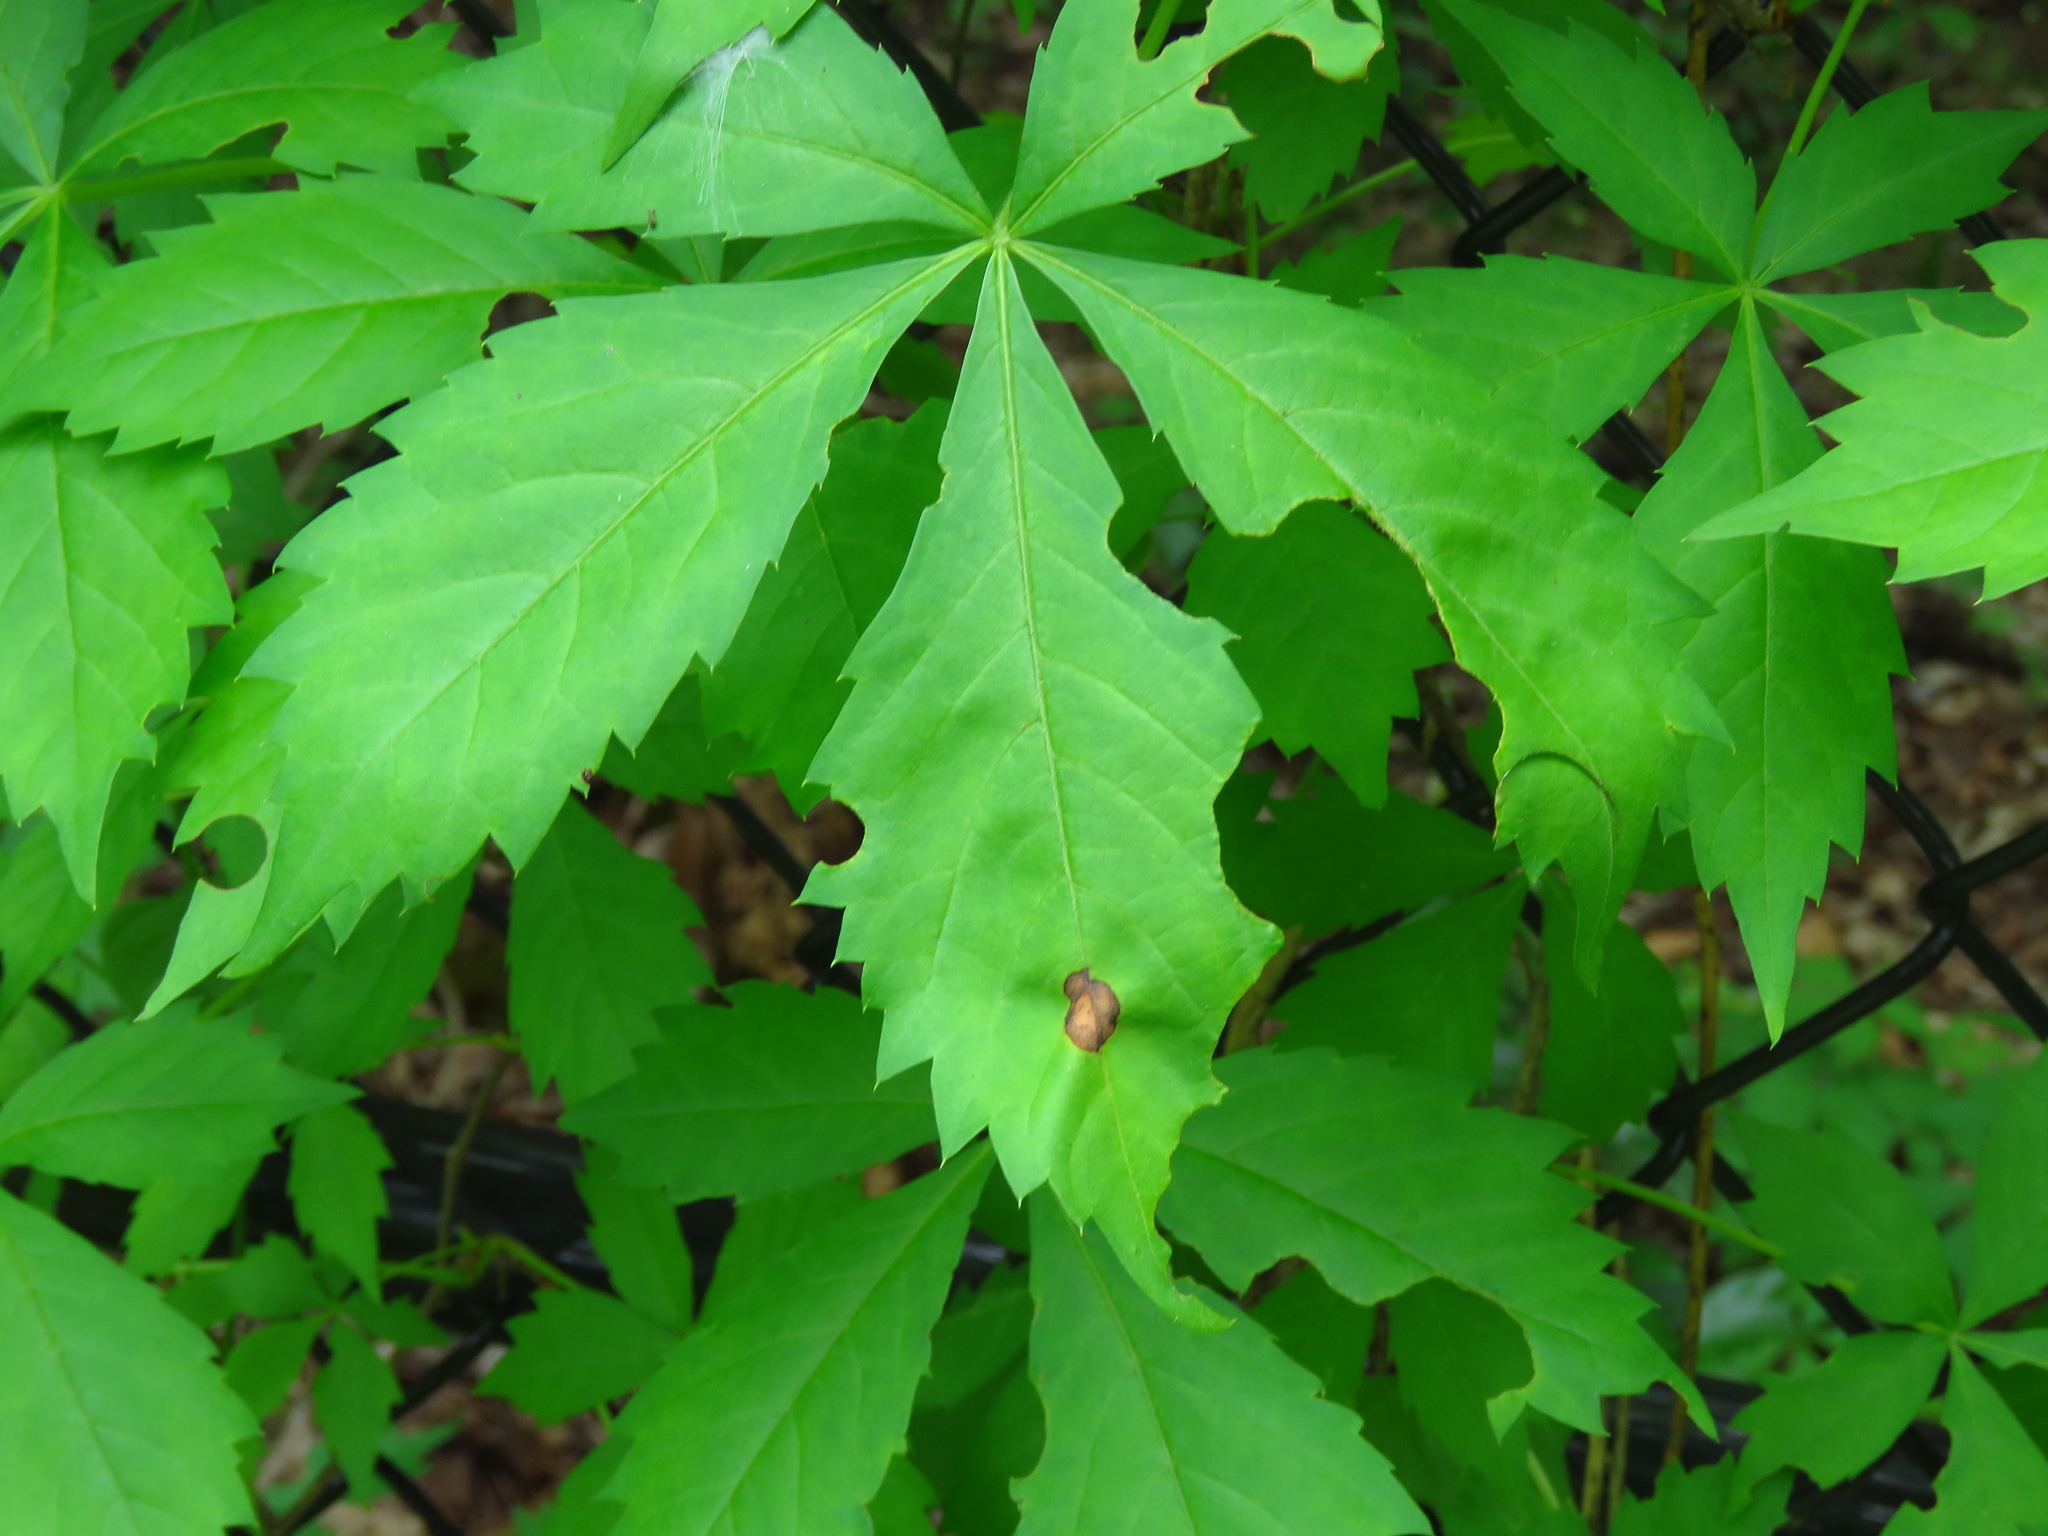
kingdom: Plantae
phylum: Tracheophyta
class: Magnoliopsida
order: Vitales
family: Vitaceae
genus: Parthenocissus
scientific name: Parthenocissus quinquefolia
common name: Virginia-creeper
